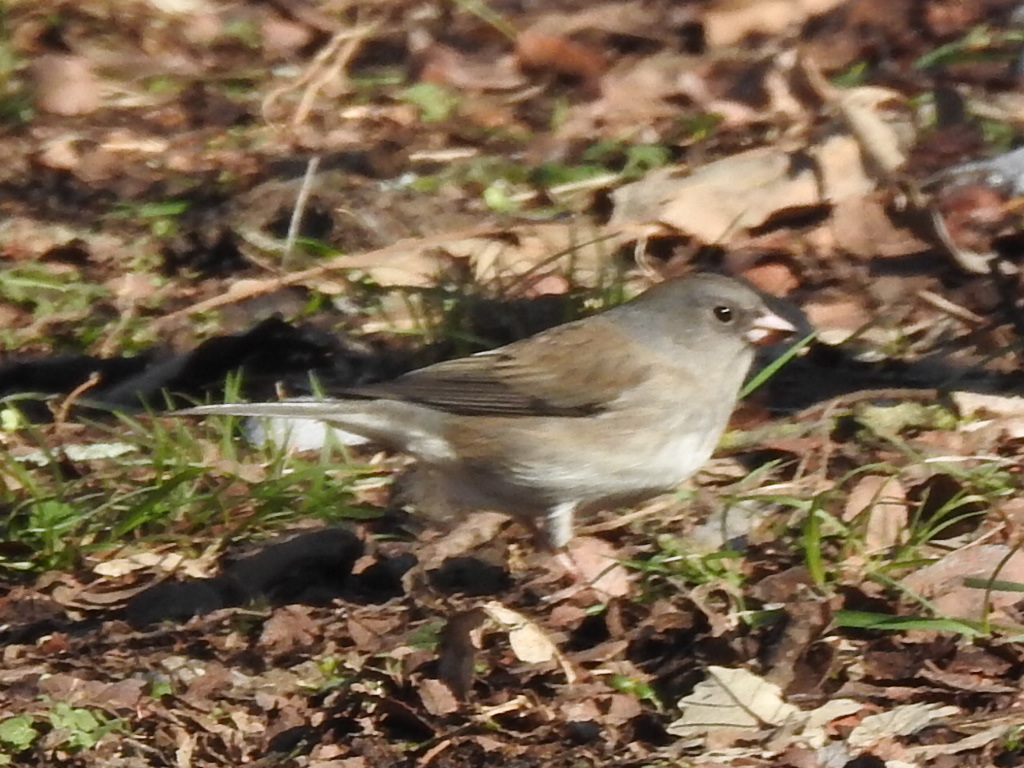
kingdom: Animalia
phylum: Chordata
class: Aves
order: Passeriformes
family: Passerellidae
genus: Junco
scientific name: Junco hyemalis
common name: Dark-eyed junco
